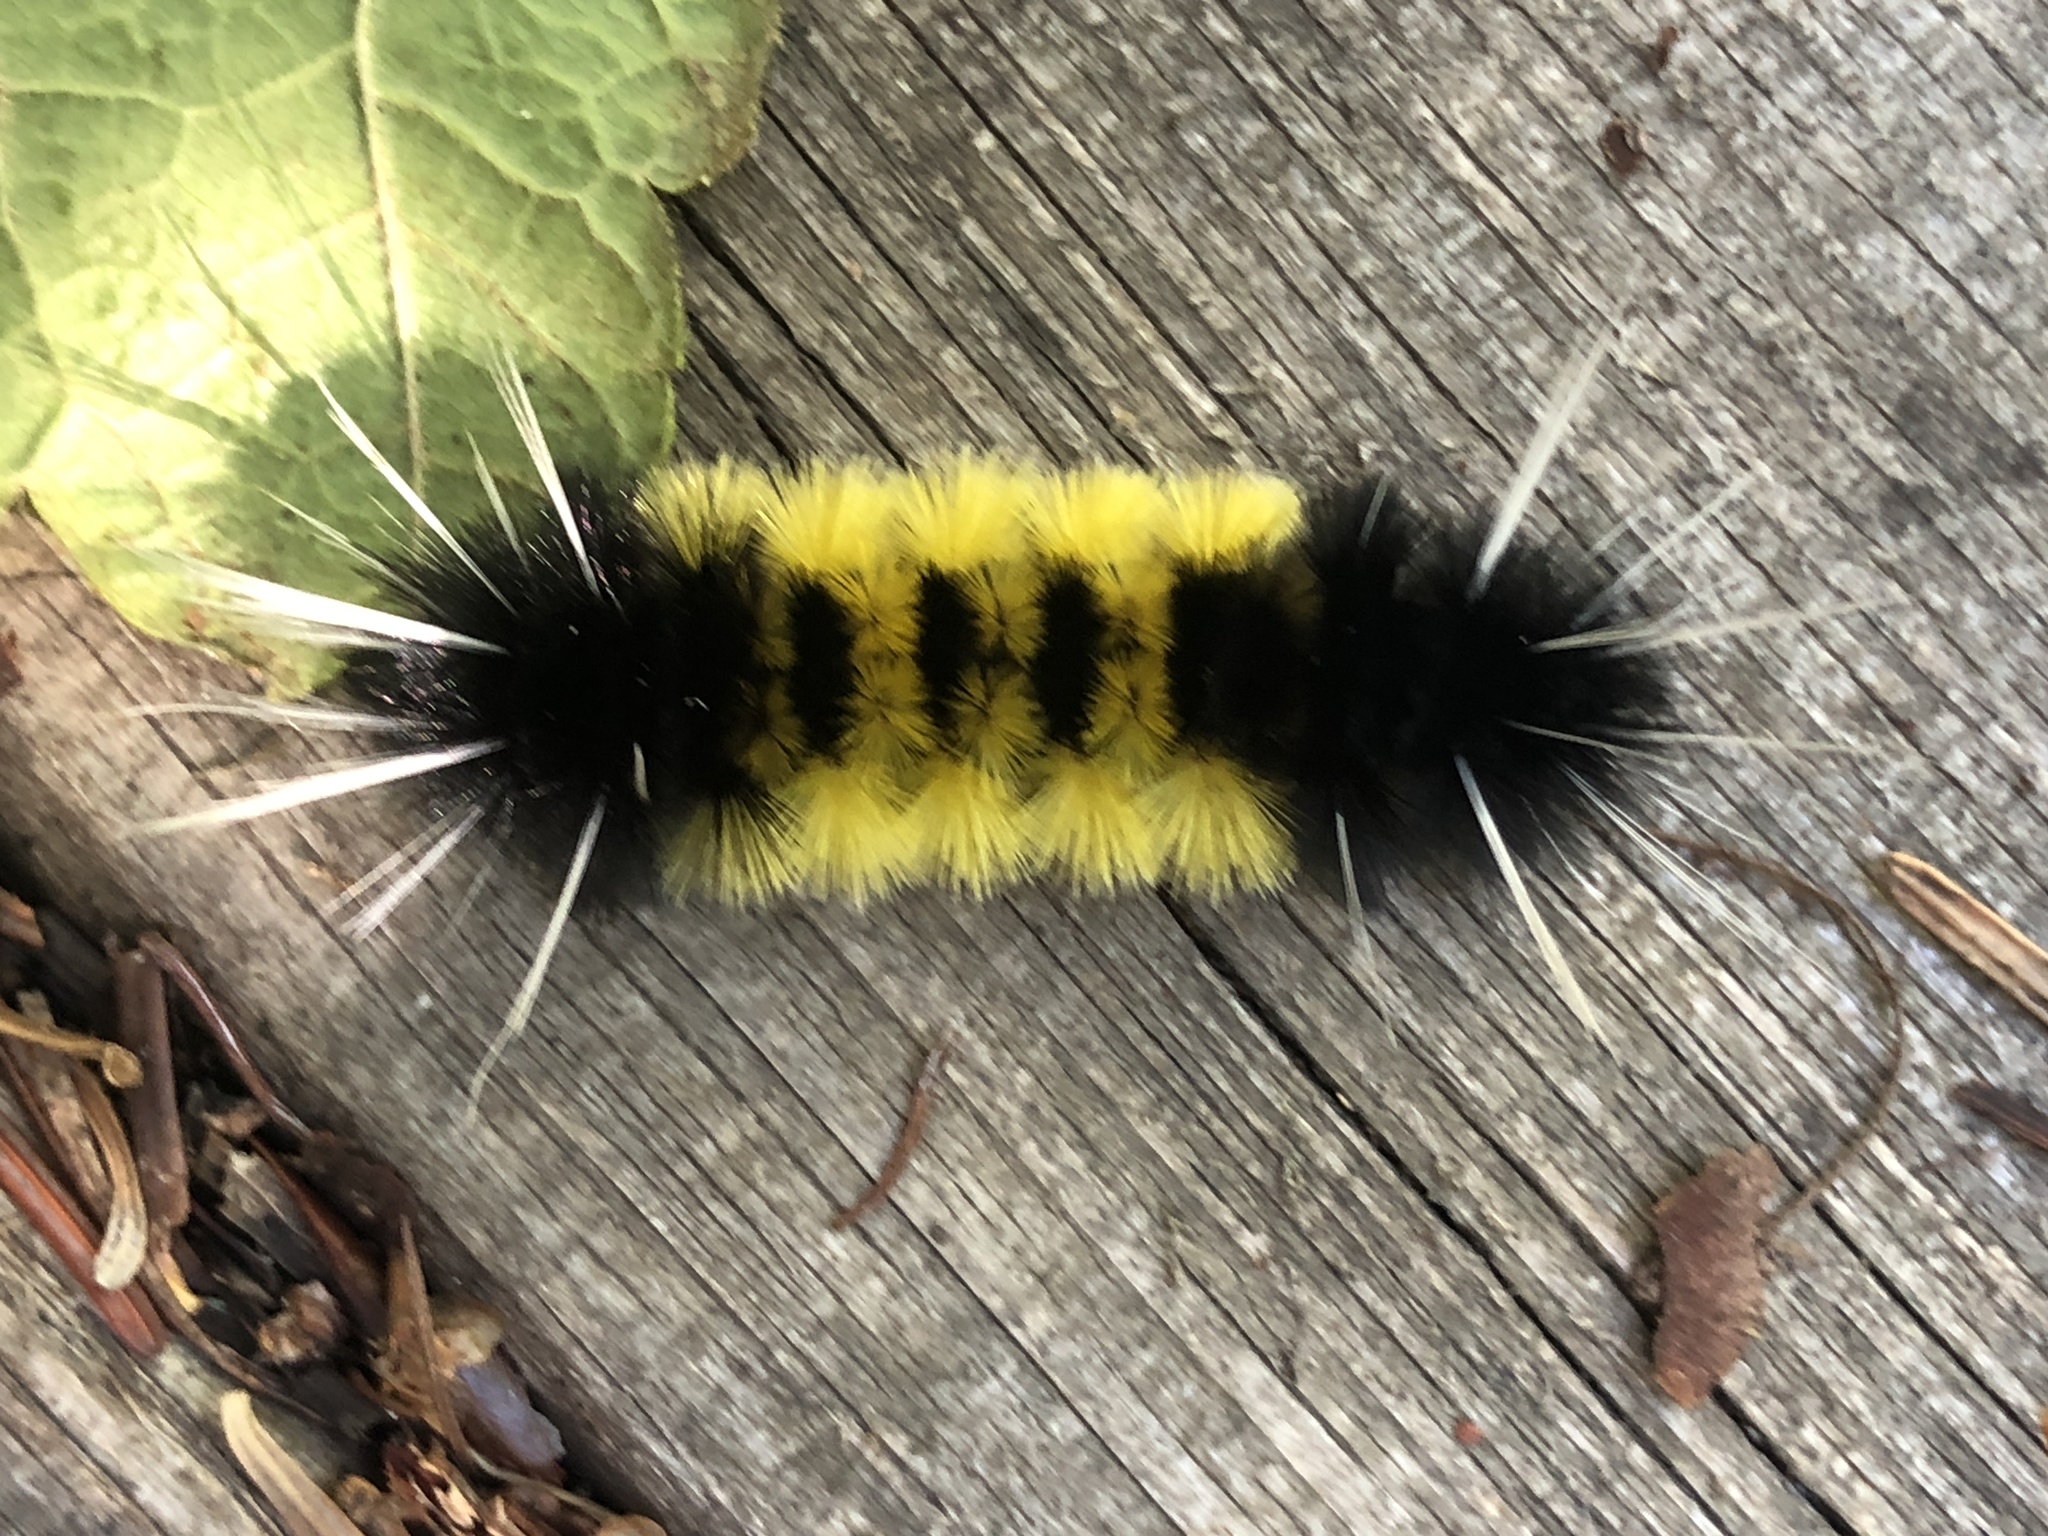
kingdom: Animalia
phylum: Arthropoda
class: Insecta
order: Lepidoptera
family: Erebidae
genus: Lophocampa
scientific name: Lophocampa maculata
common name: Spotted tussock moth
